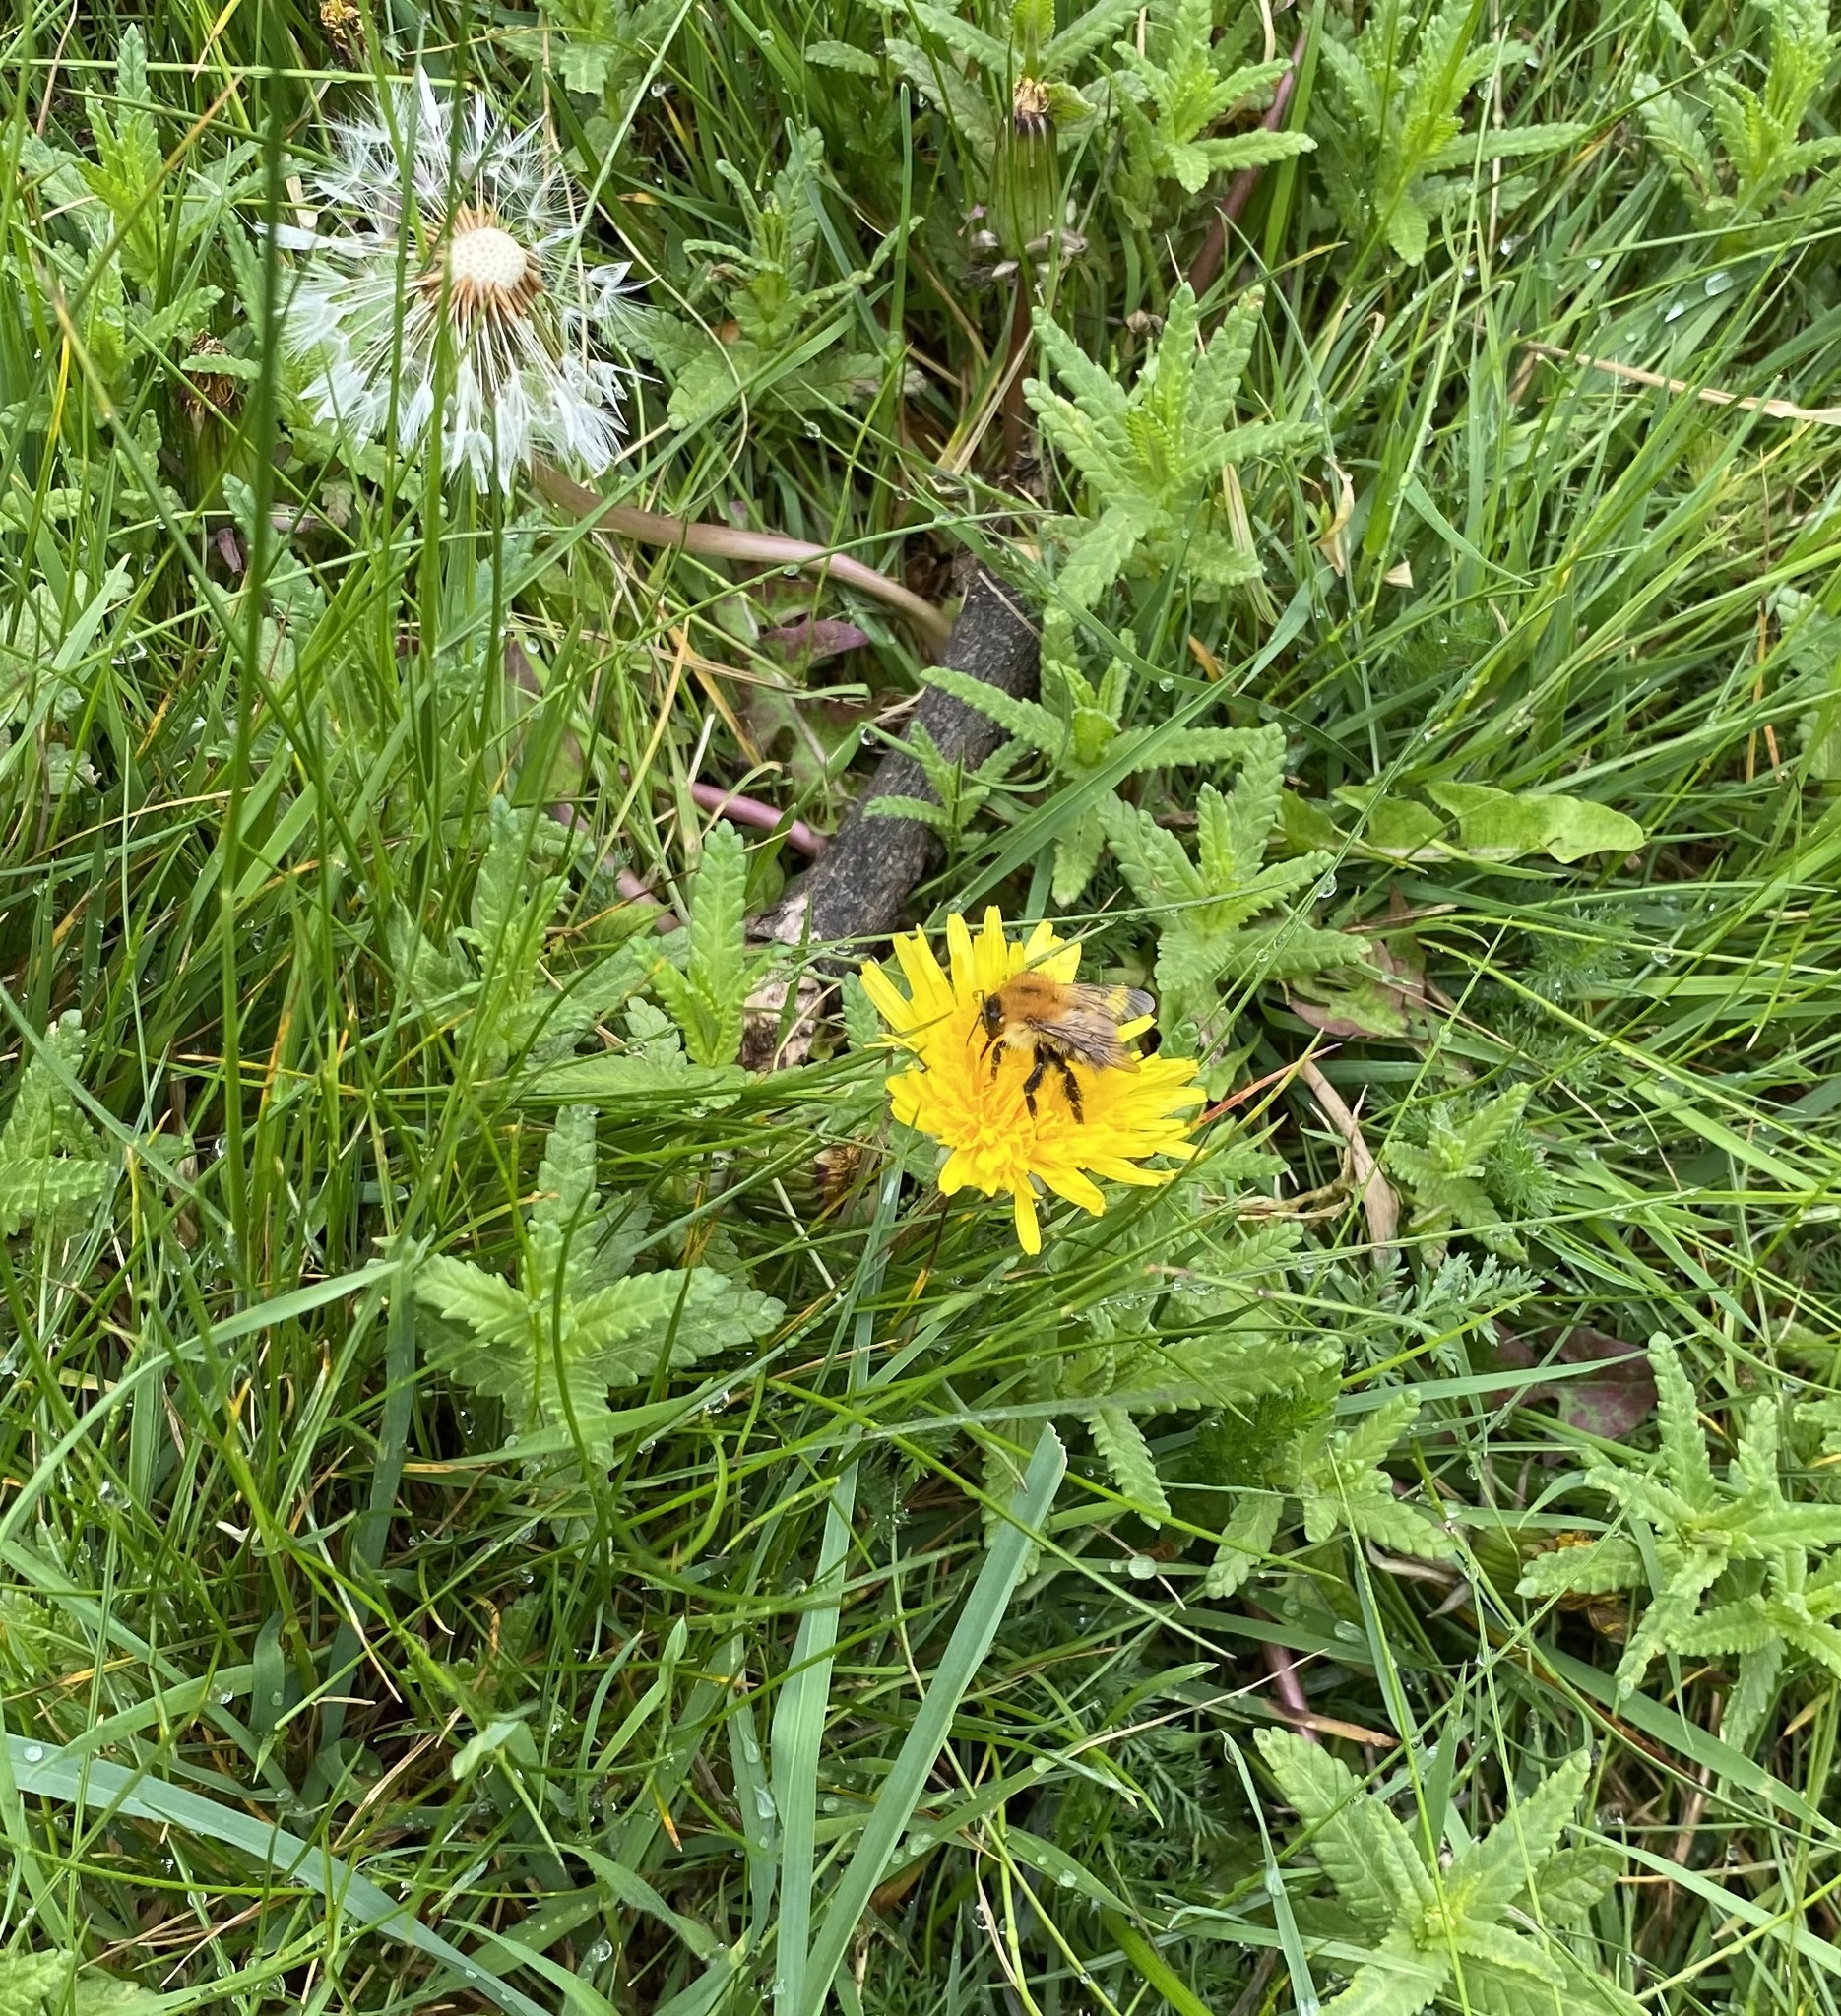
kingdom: Animalia
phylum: Arthropoda
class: Insecta
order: Hymenoptera
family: Apidae
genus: Bombus
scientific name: Bombus pascuorum
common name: Common carder bee
